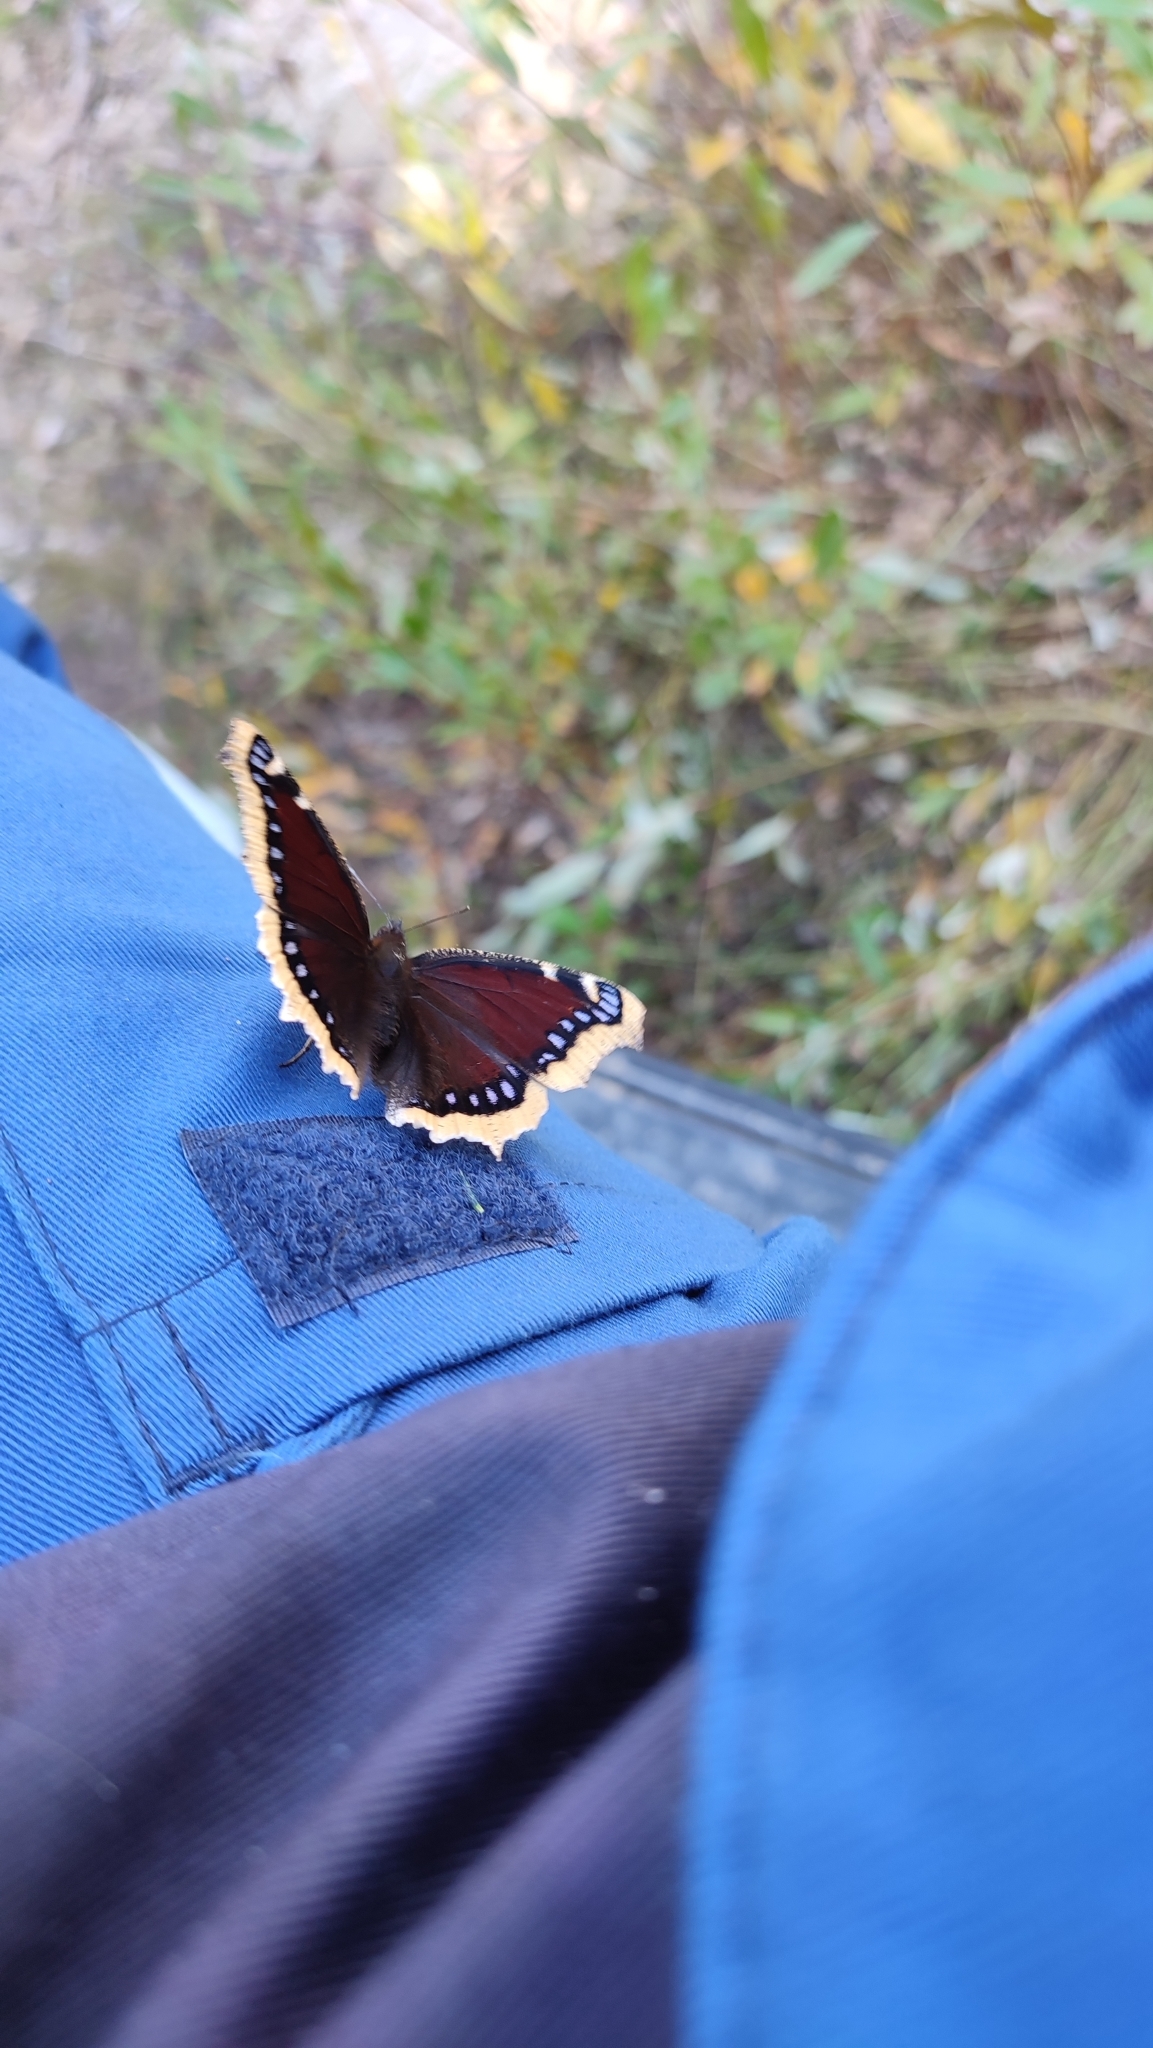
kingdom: Animalia
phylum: Arthropoda
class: Insecta
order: Lepidoptera
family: Nymphalidae
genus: Nymphalis
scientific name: Nymphalis antiopa
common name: Camberwell beauty
